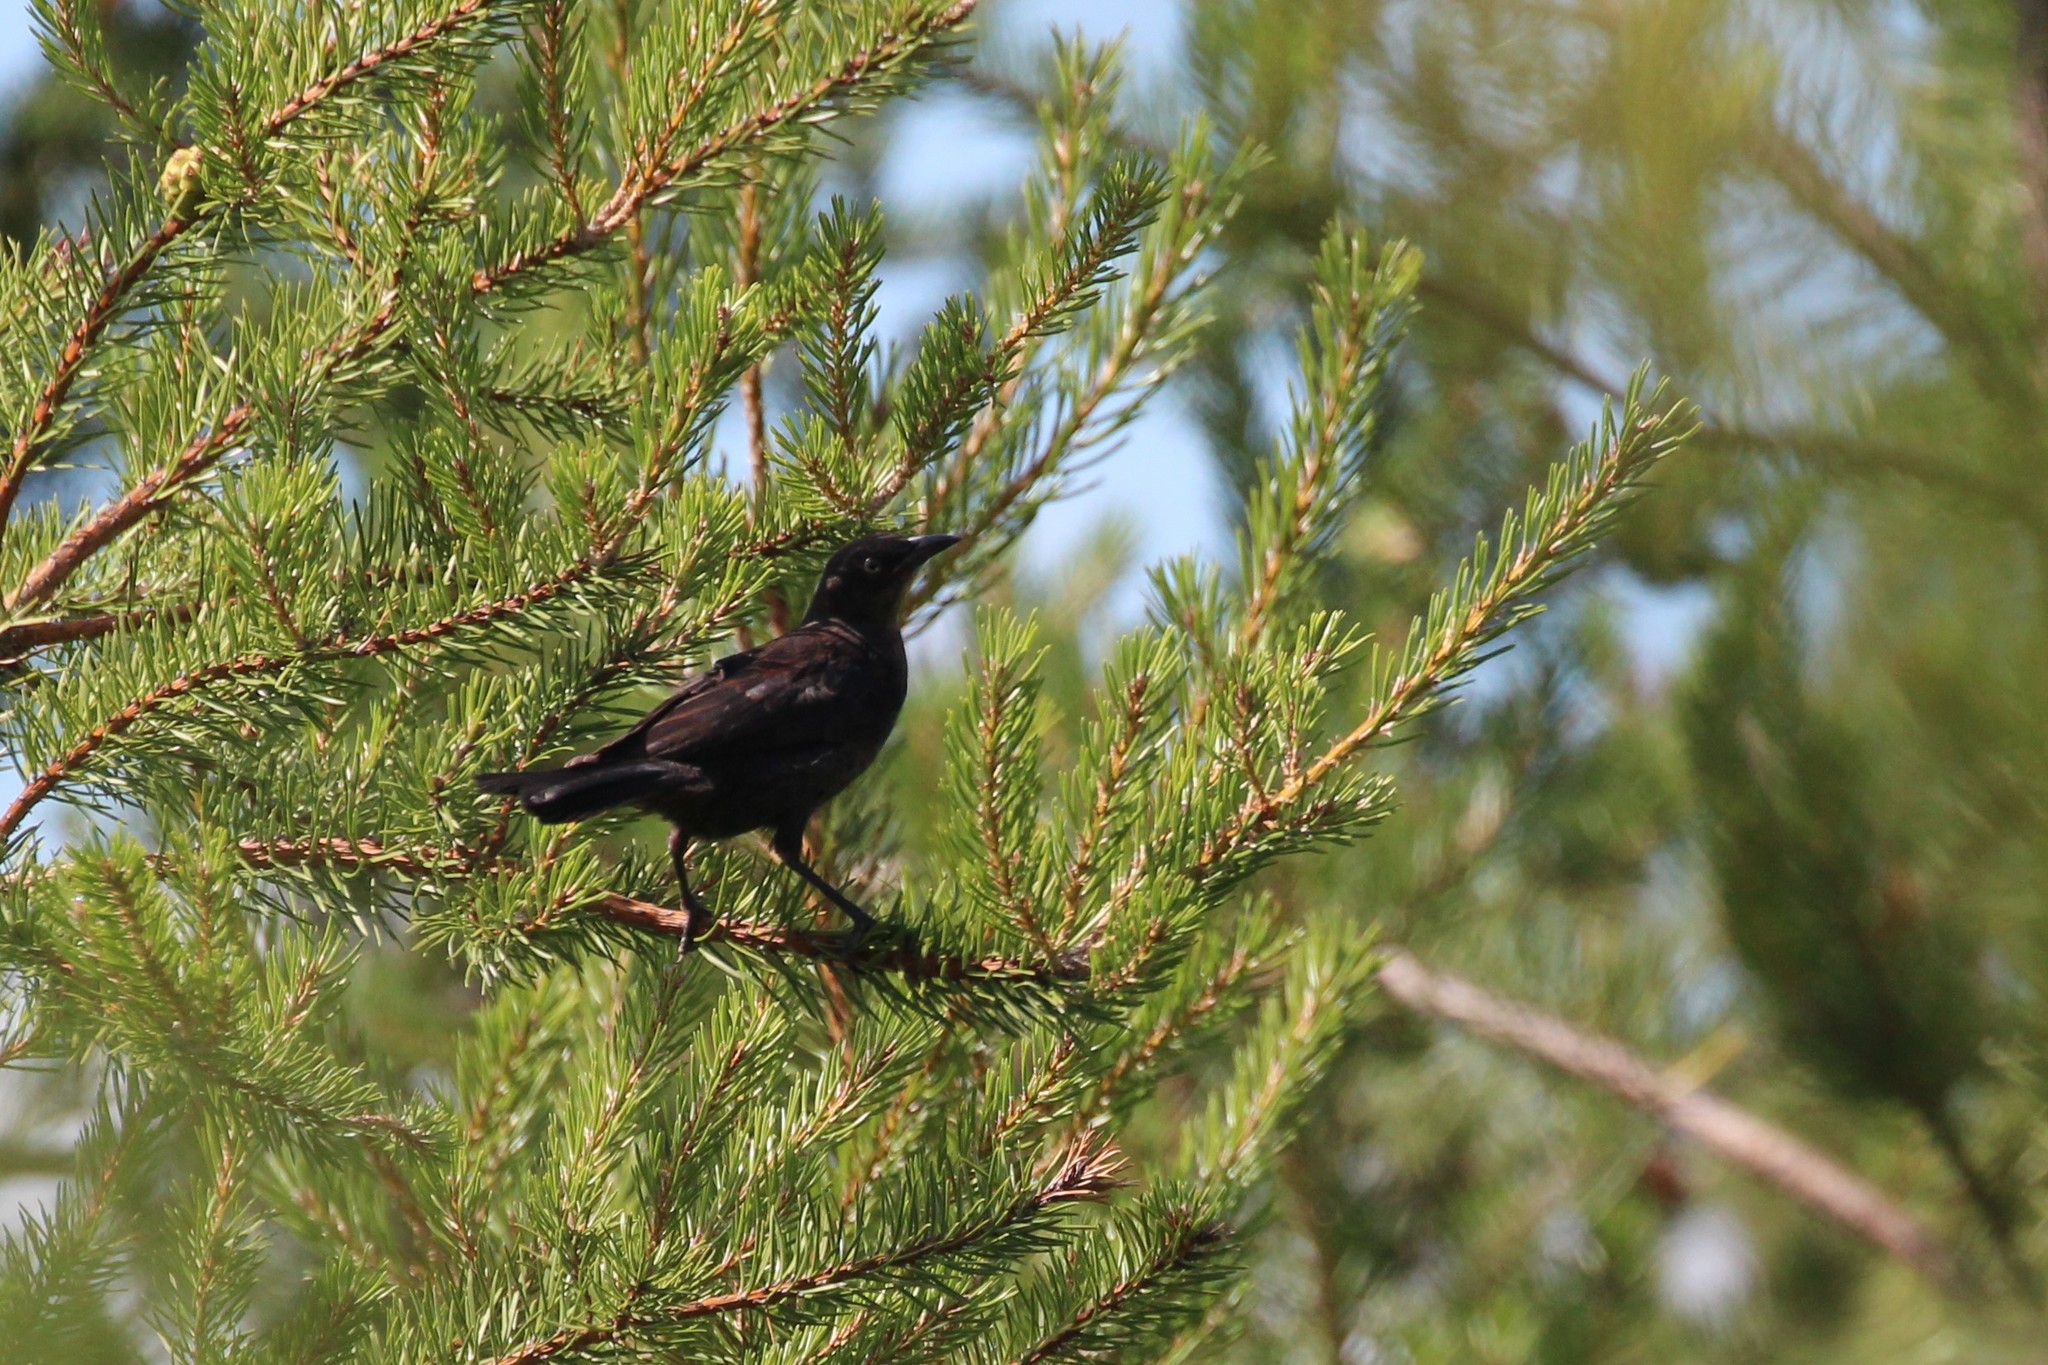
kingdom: Animalia
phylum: Chordata
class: Aves
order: Passeriformes
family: Icteridae
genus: Euphagus
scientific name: Euphagus carolinus
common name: Rusty blackbird
